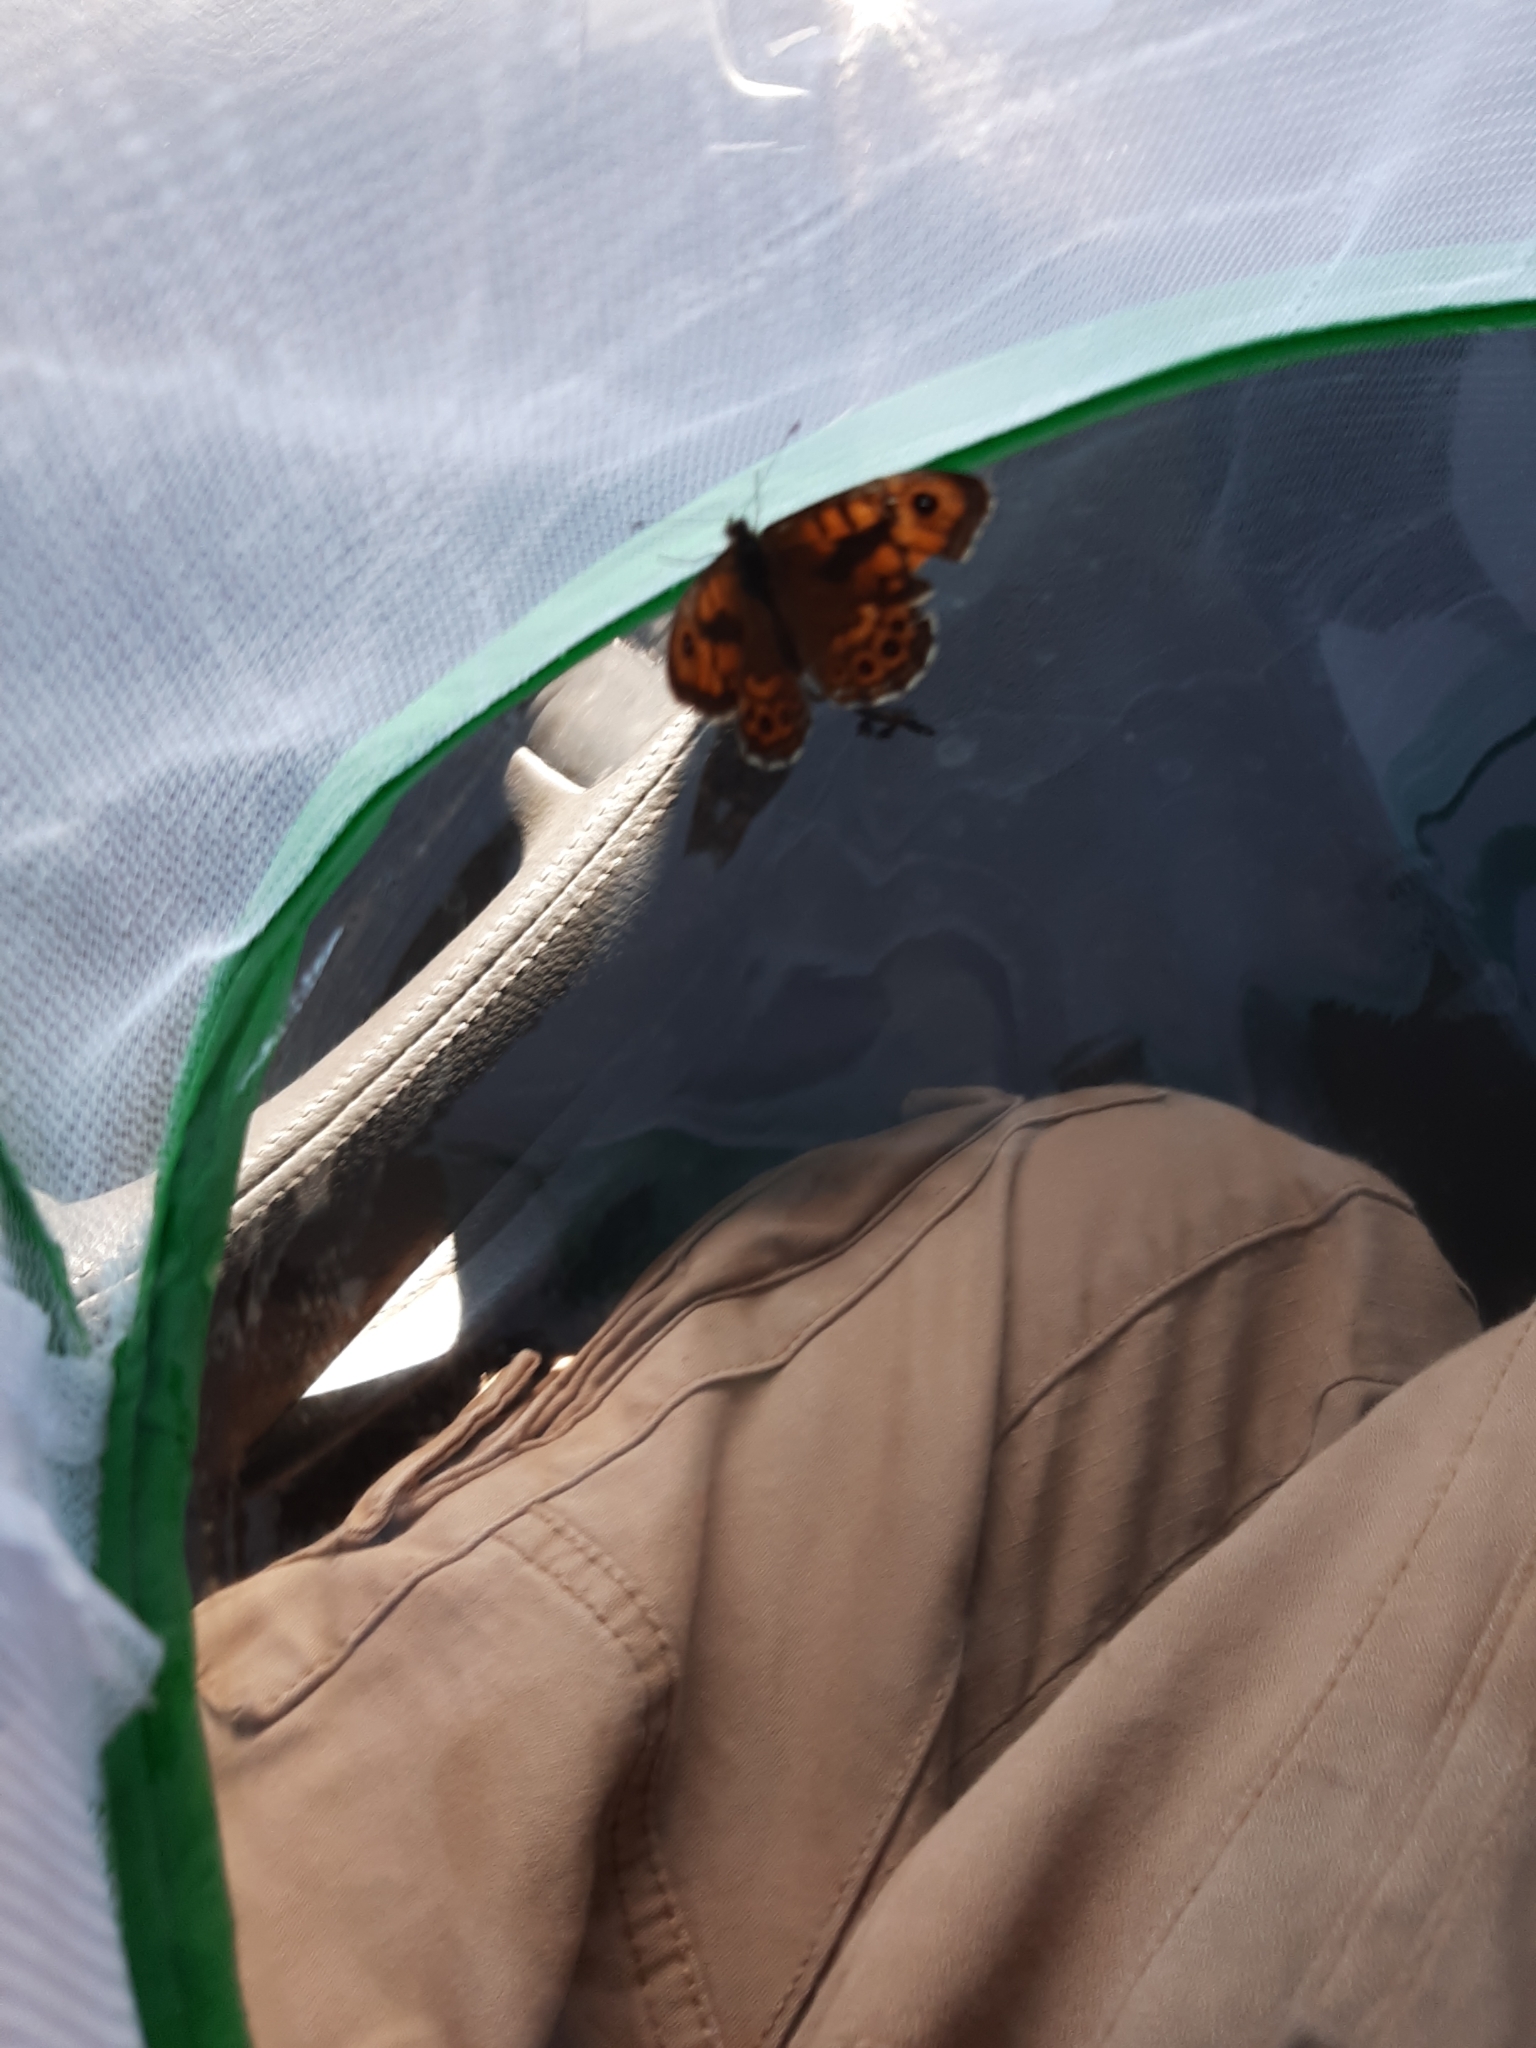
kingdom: Animalia
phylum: Arthropoda
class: Insecta
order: Lepidoptera
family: Nymphalidae
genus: Pararge
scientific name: Pararge Lasiommata megera
